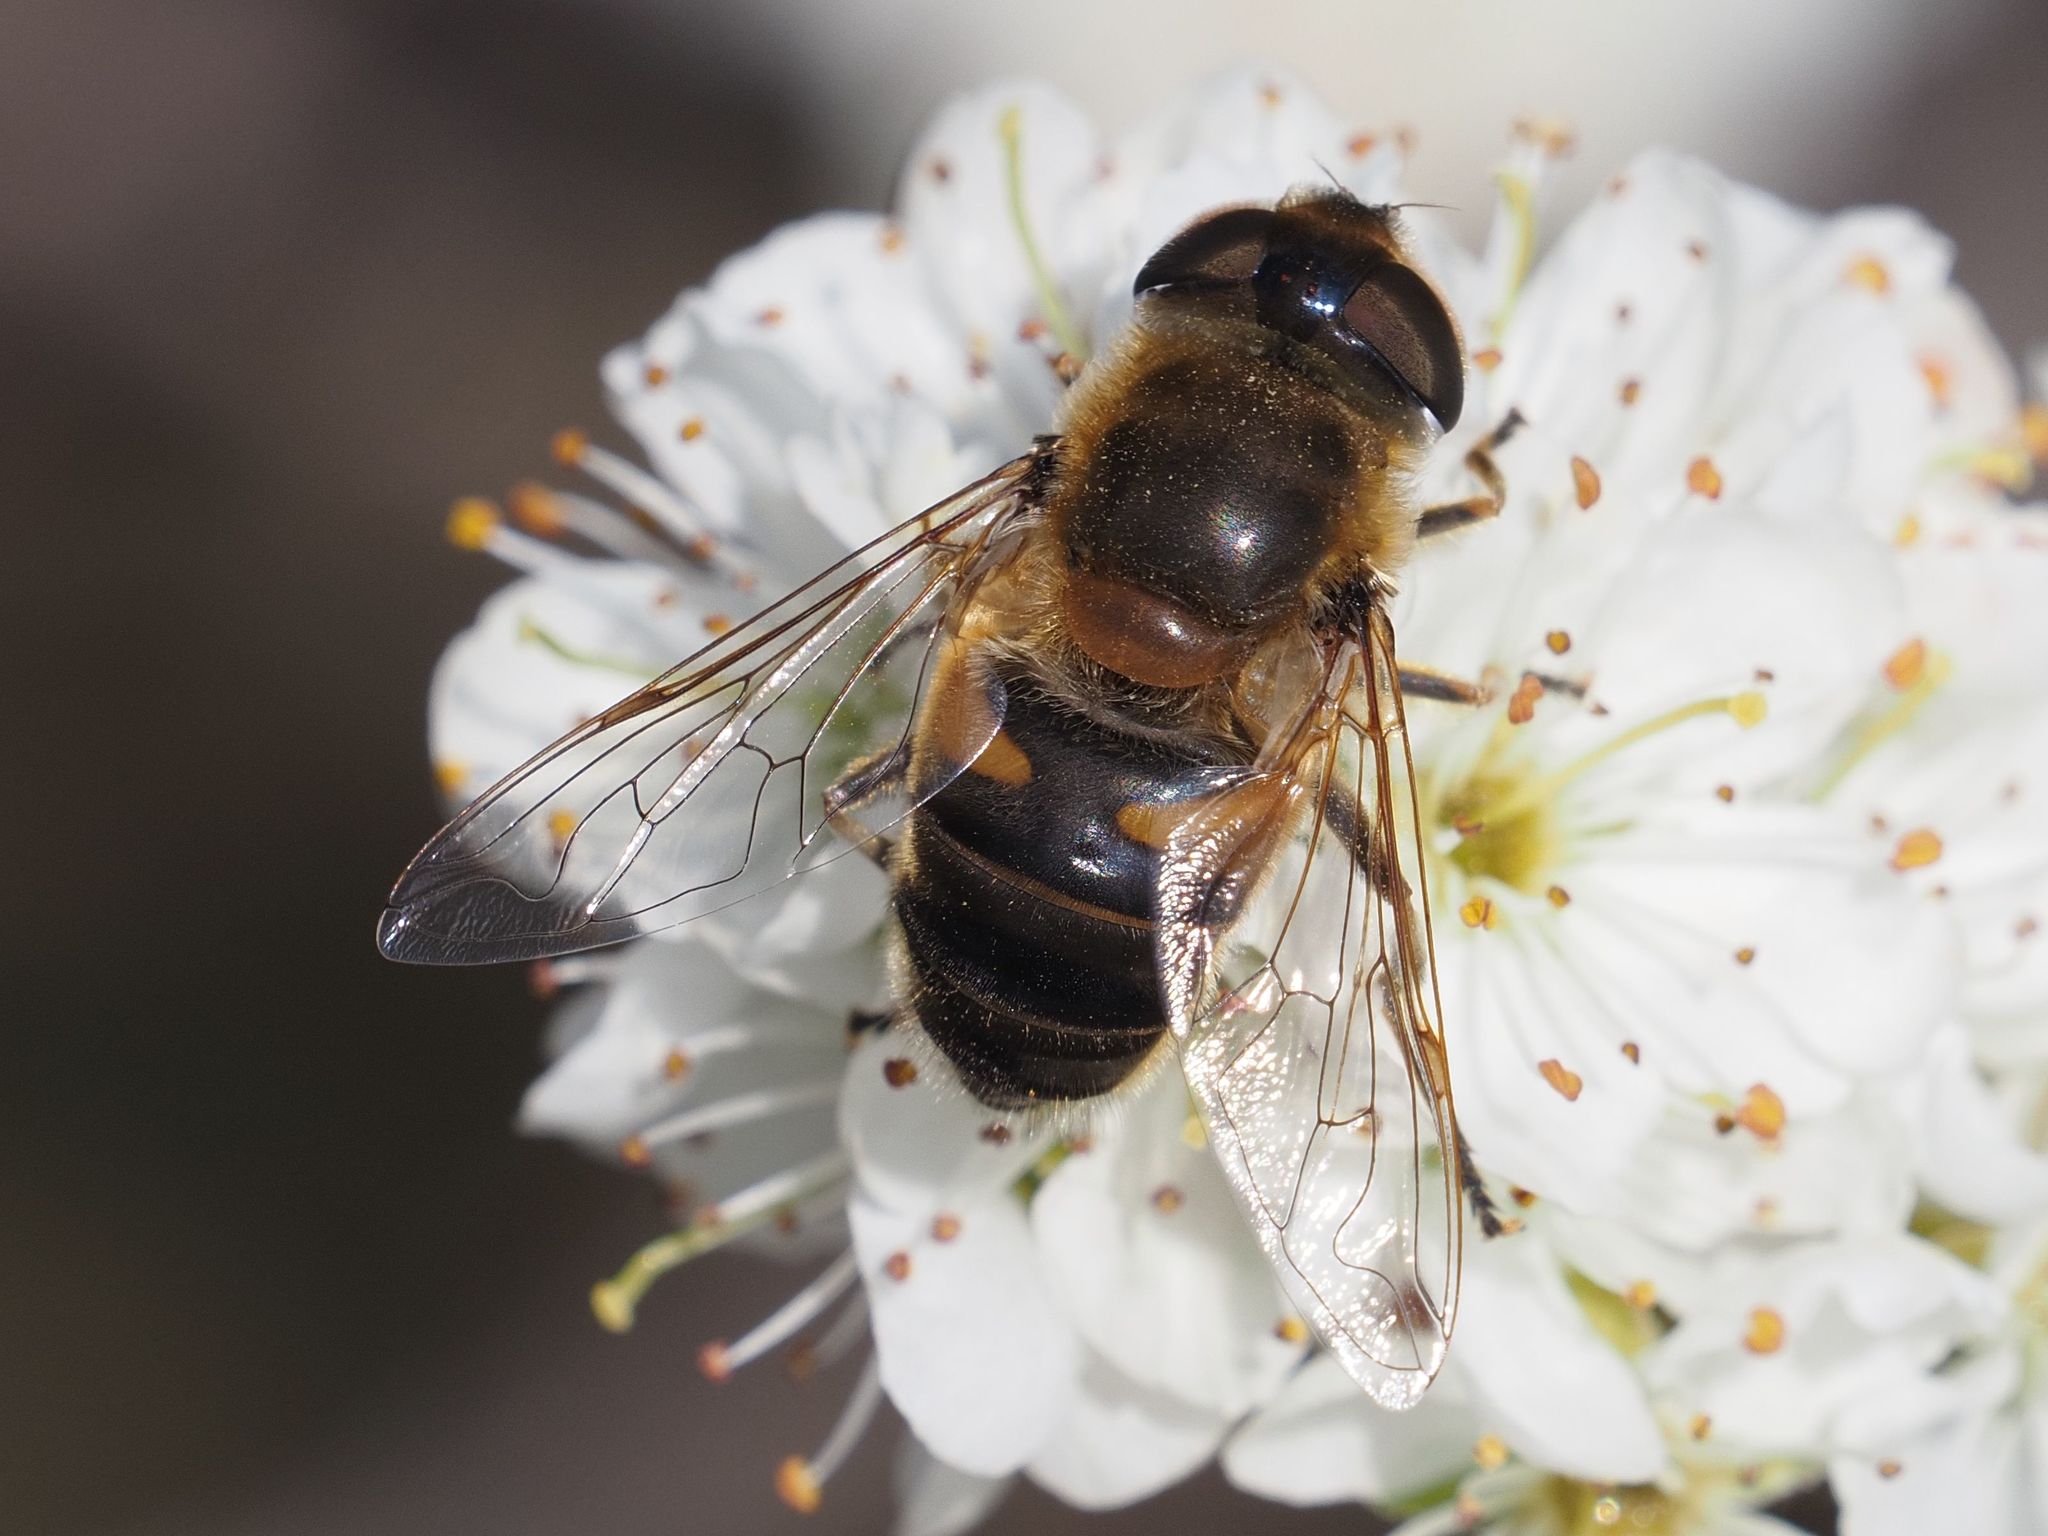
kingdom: Animalia
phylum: Arthropoda
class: Insecta
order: Diptera
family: Syrphidae
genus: Eristalis
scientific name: Eristalis pertinax
